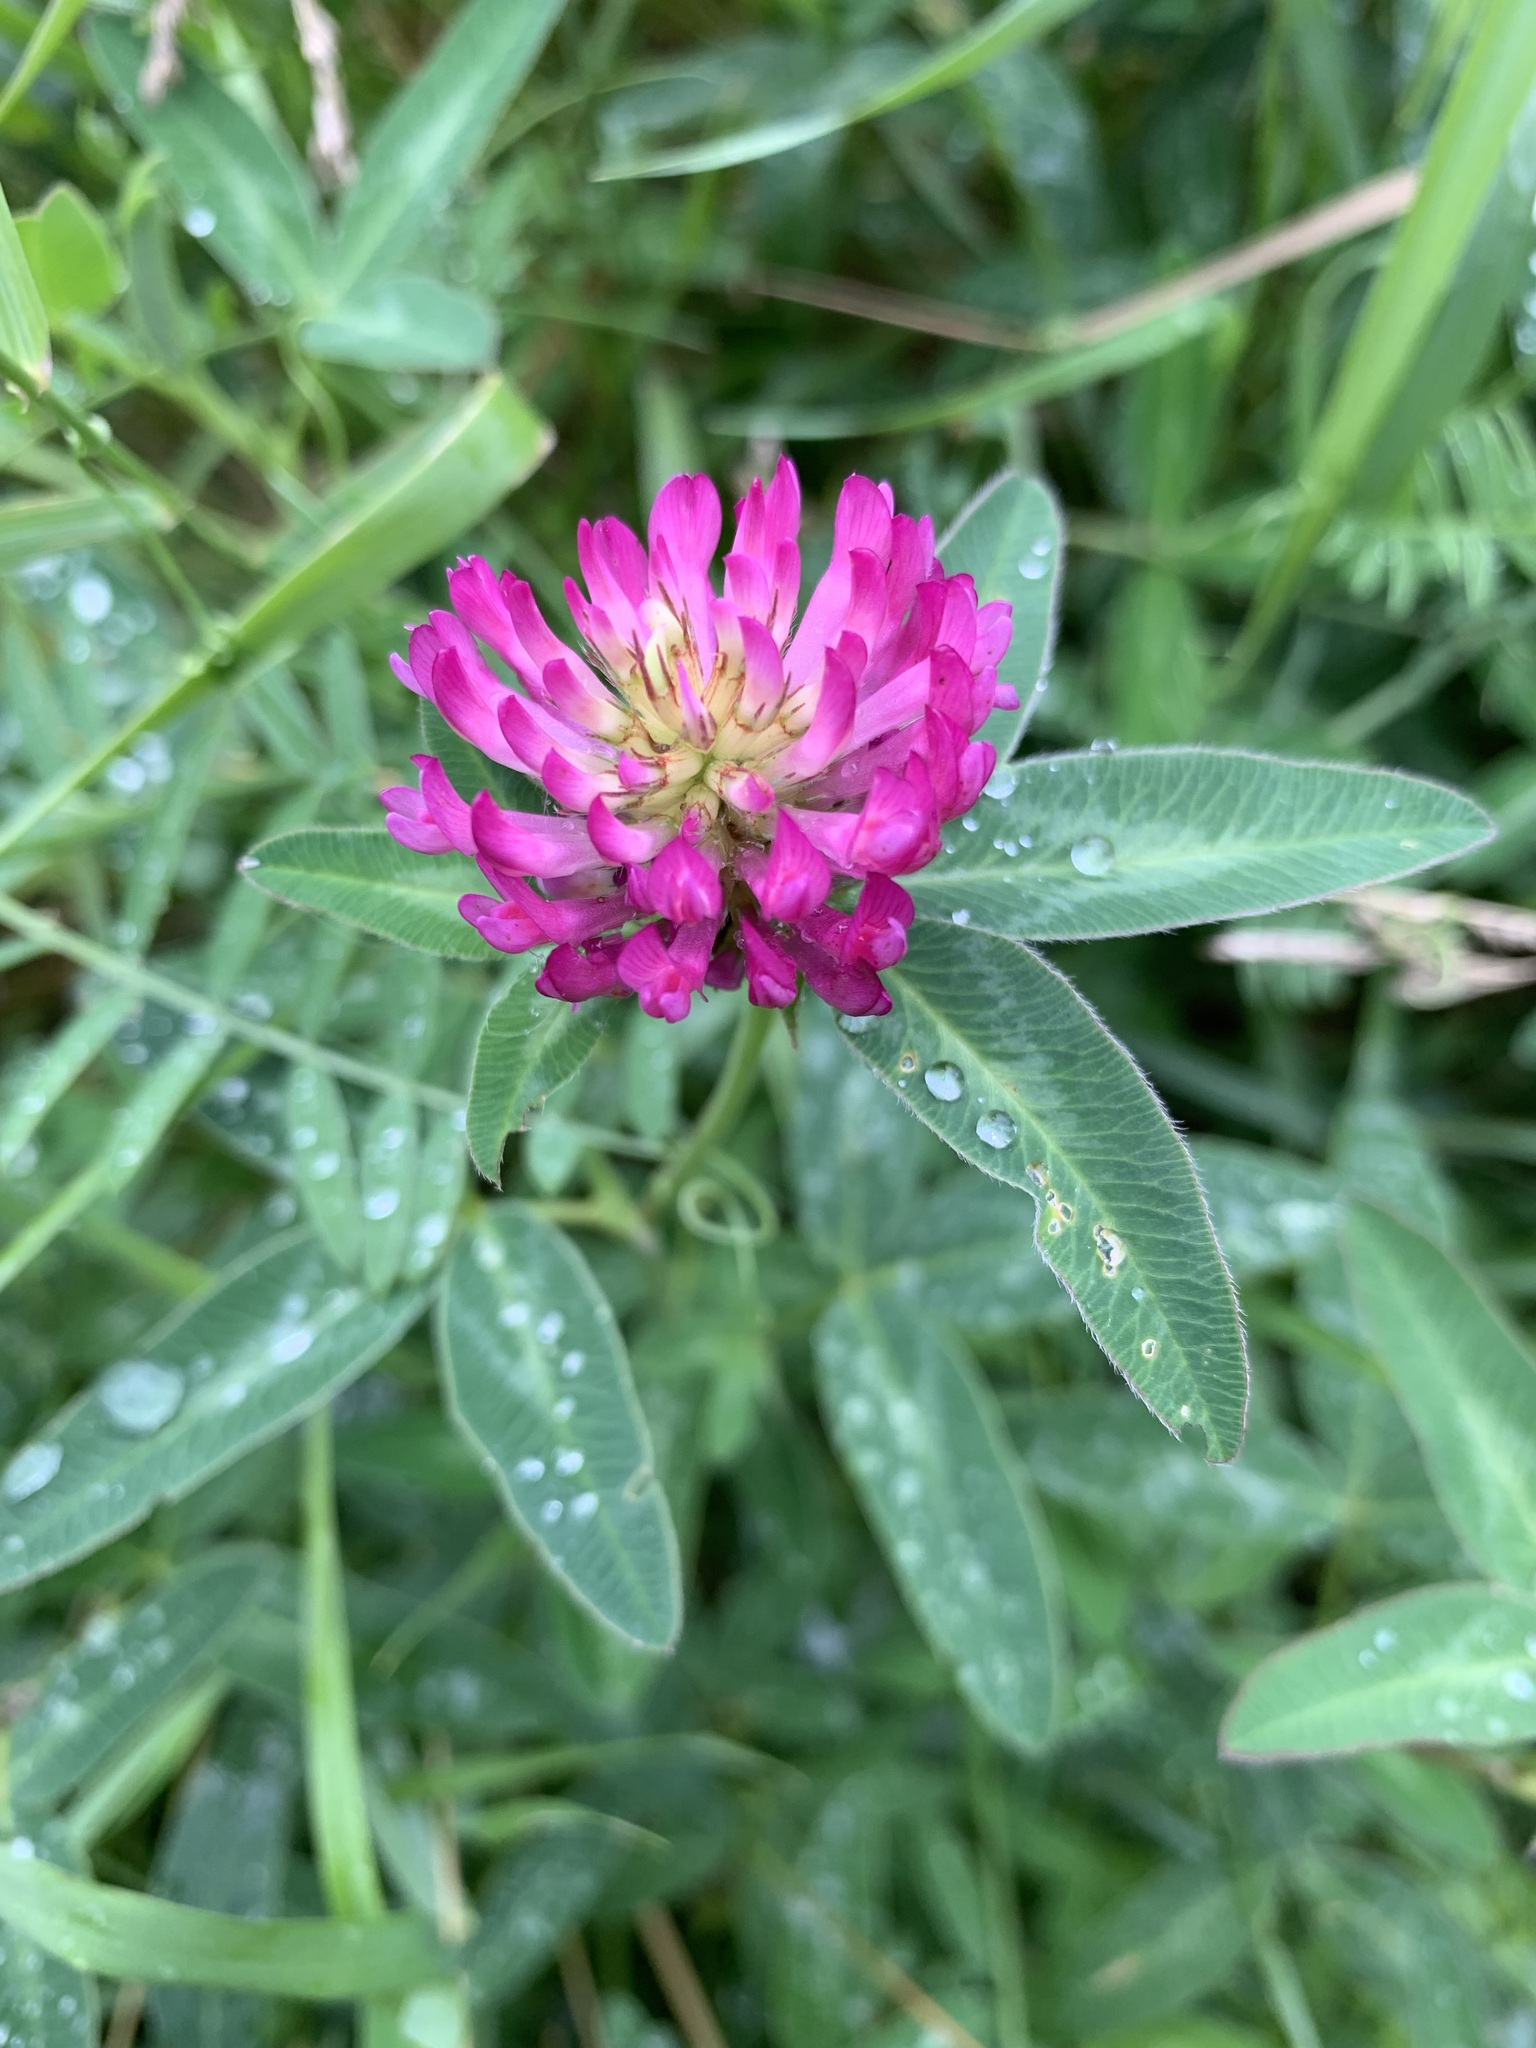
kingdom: Plantae
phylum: Tracheophyta
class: Magnoliopsida
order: Fabales
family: Fabaceae
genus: Trifolium
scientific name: Trifolium medium
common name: Zigzag clover
